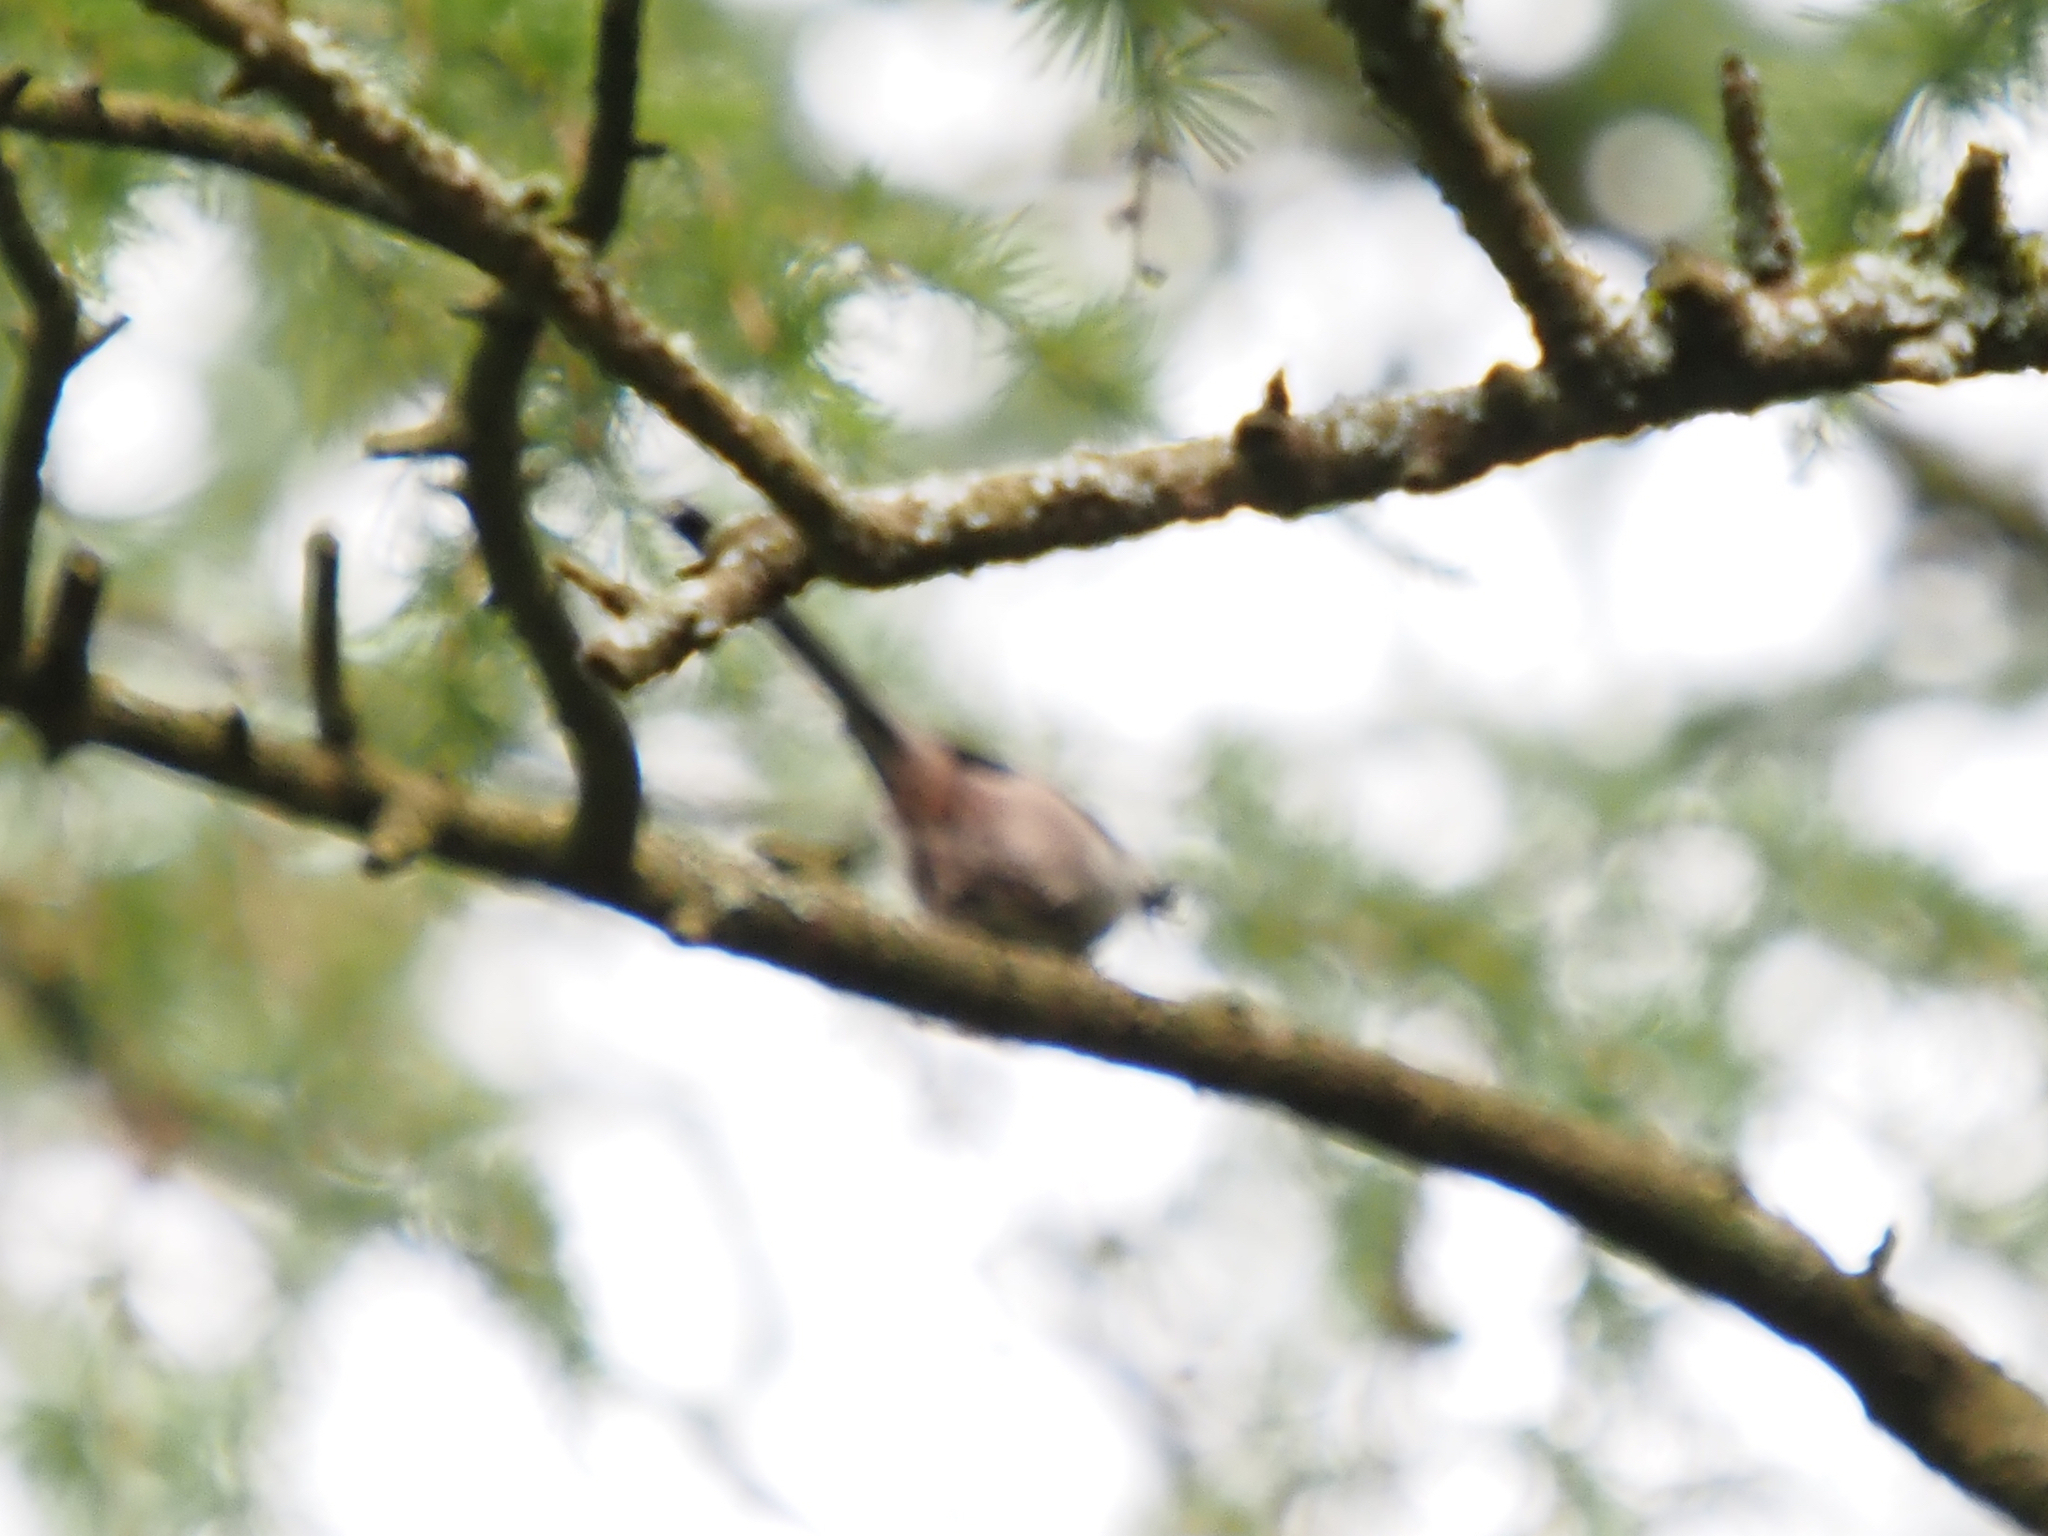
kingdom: Animalia
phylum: Chordata
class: Aves
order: Passeriformes
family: Aegithalidae
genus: Aegithalos
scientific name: Aegithalos caudatus
